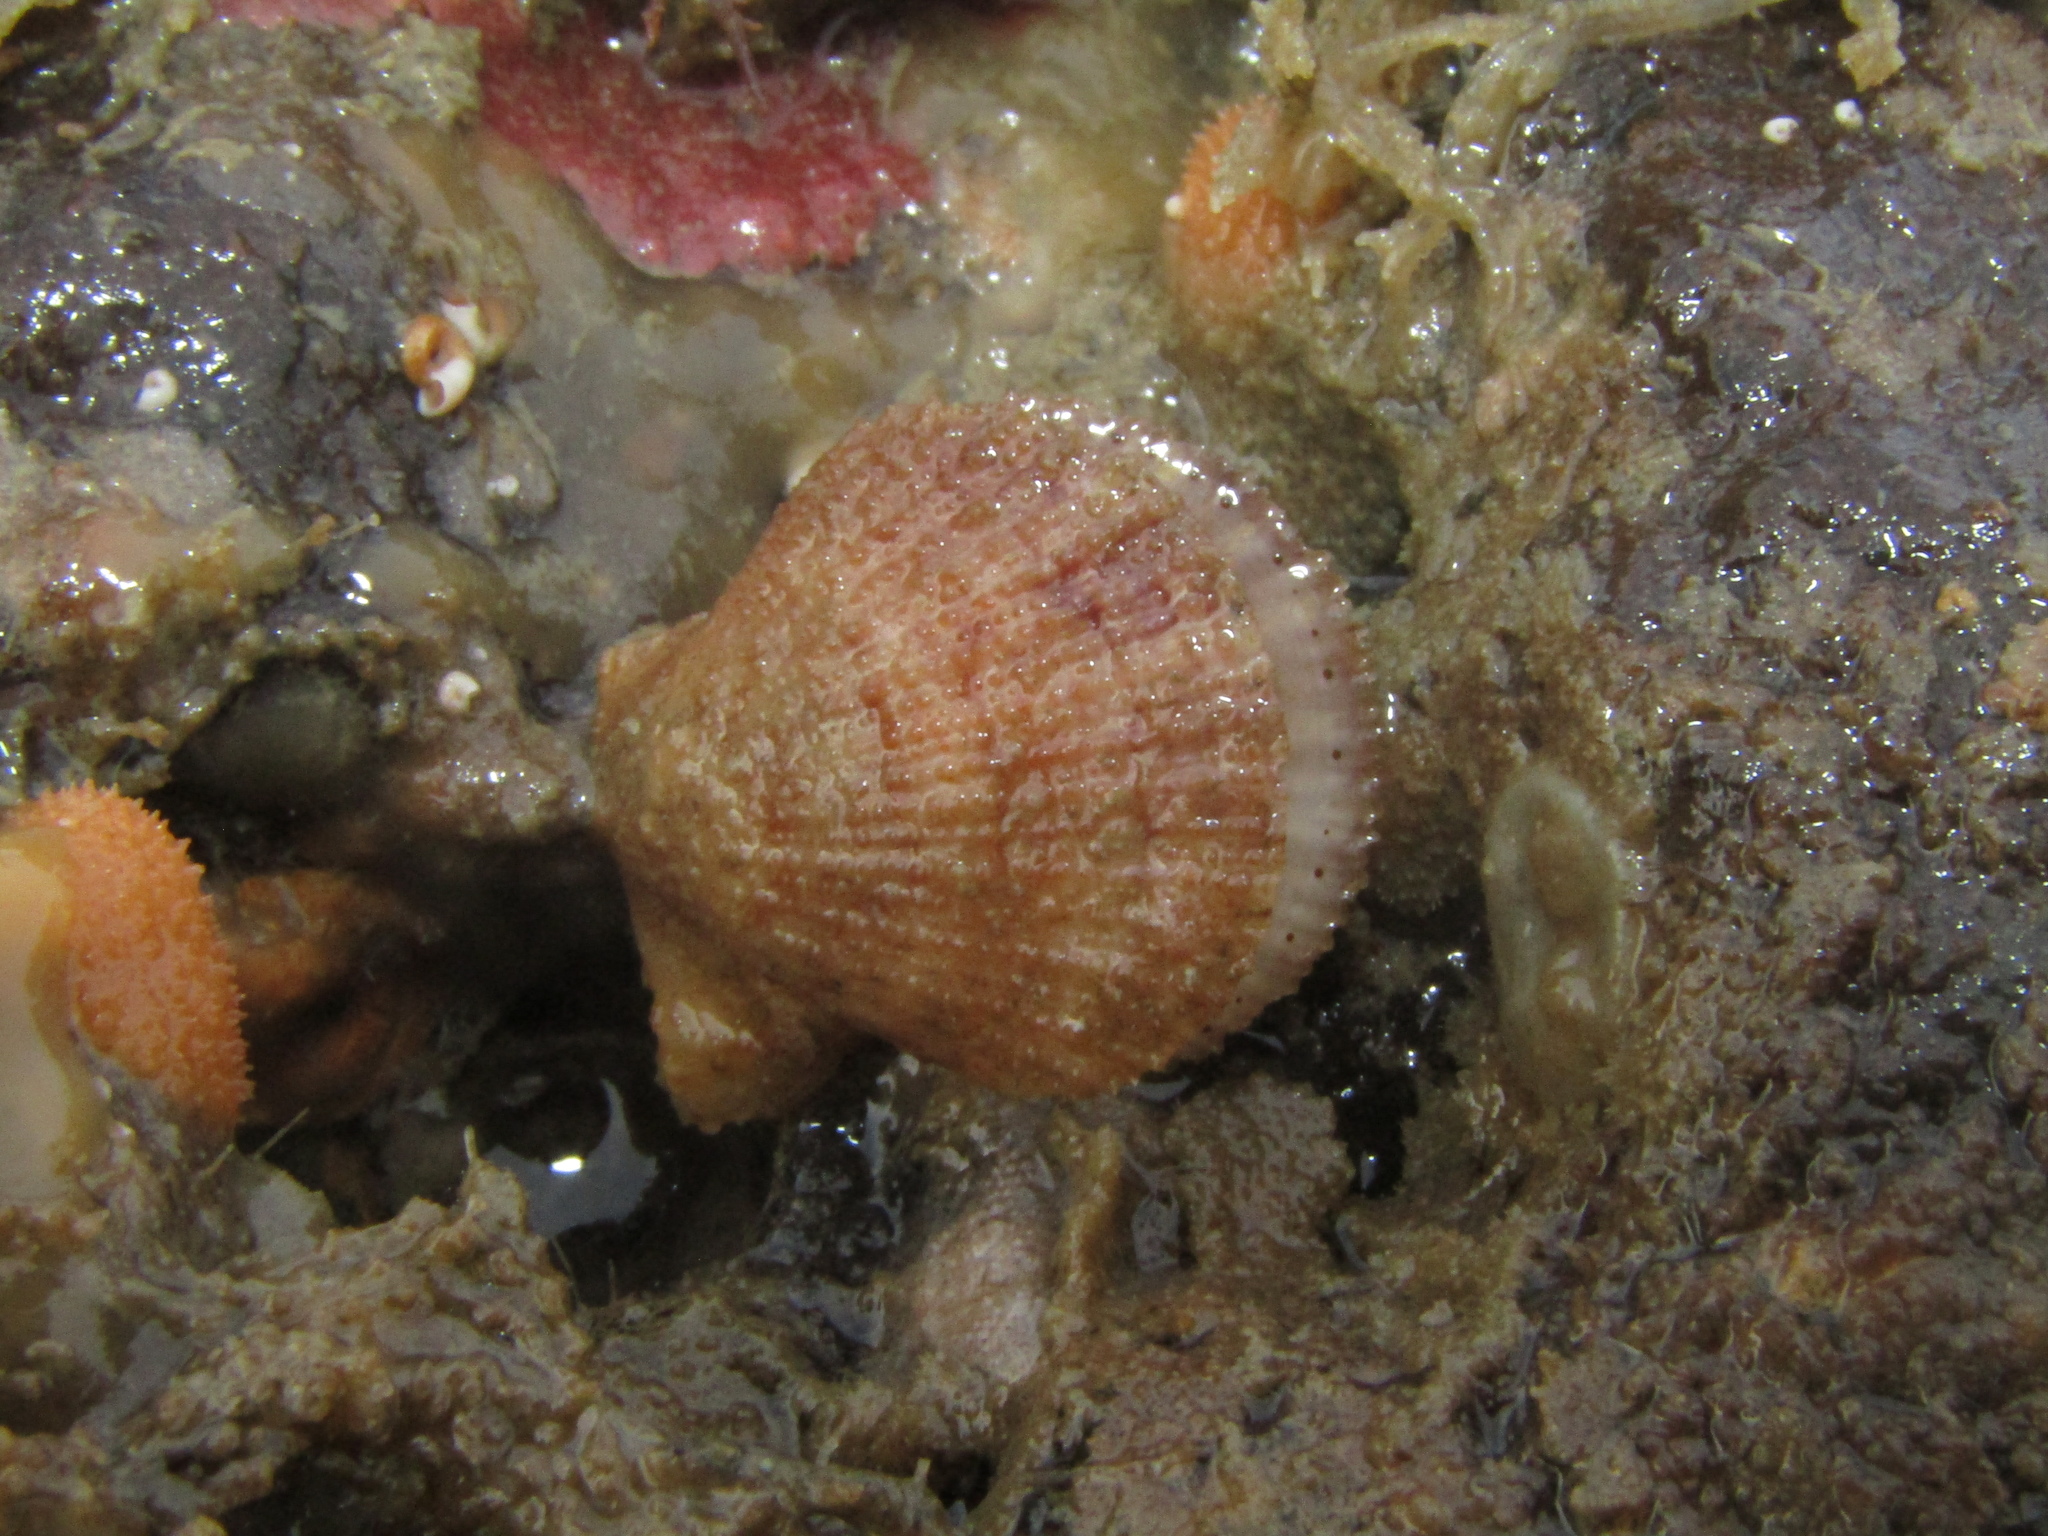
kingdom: Animalia
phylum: Mollusca
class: Bivalvia
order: Pectinida
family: Pectinidae
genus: Talochlamys
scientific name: Talochlamys zelandiae
